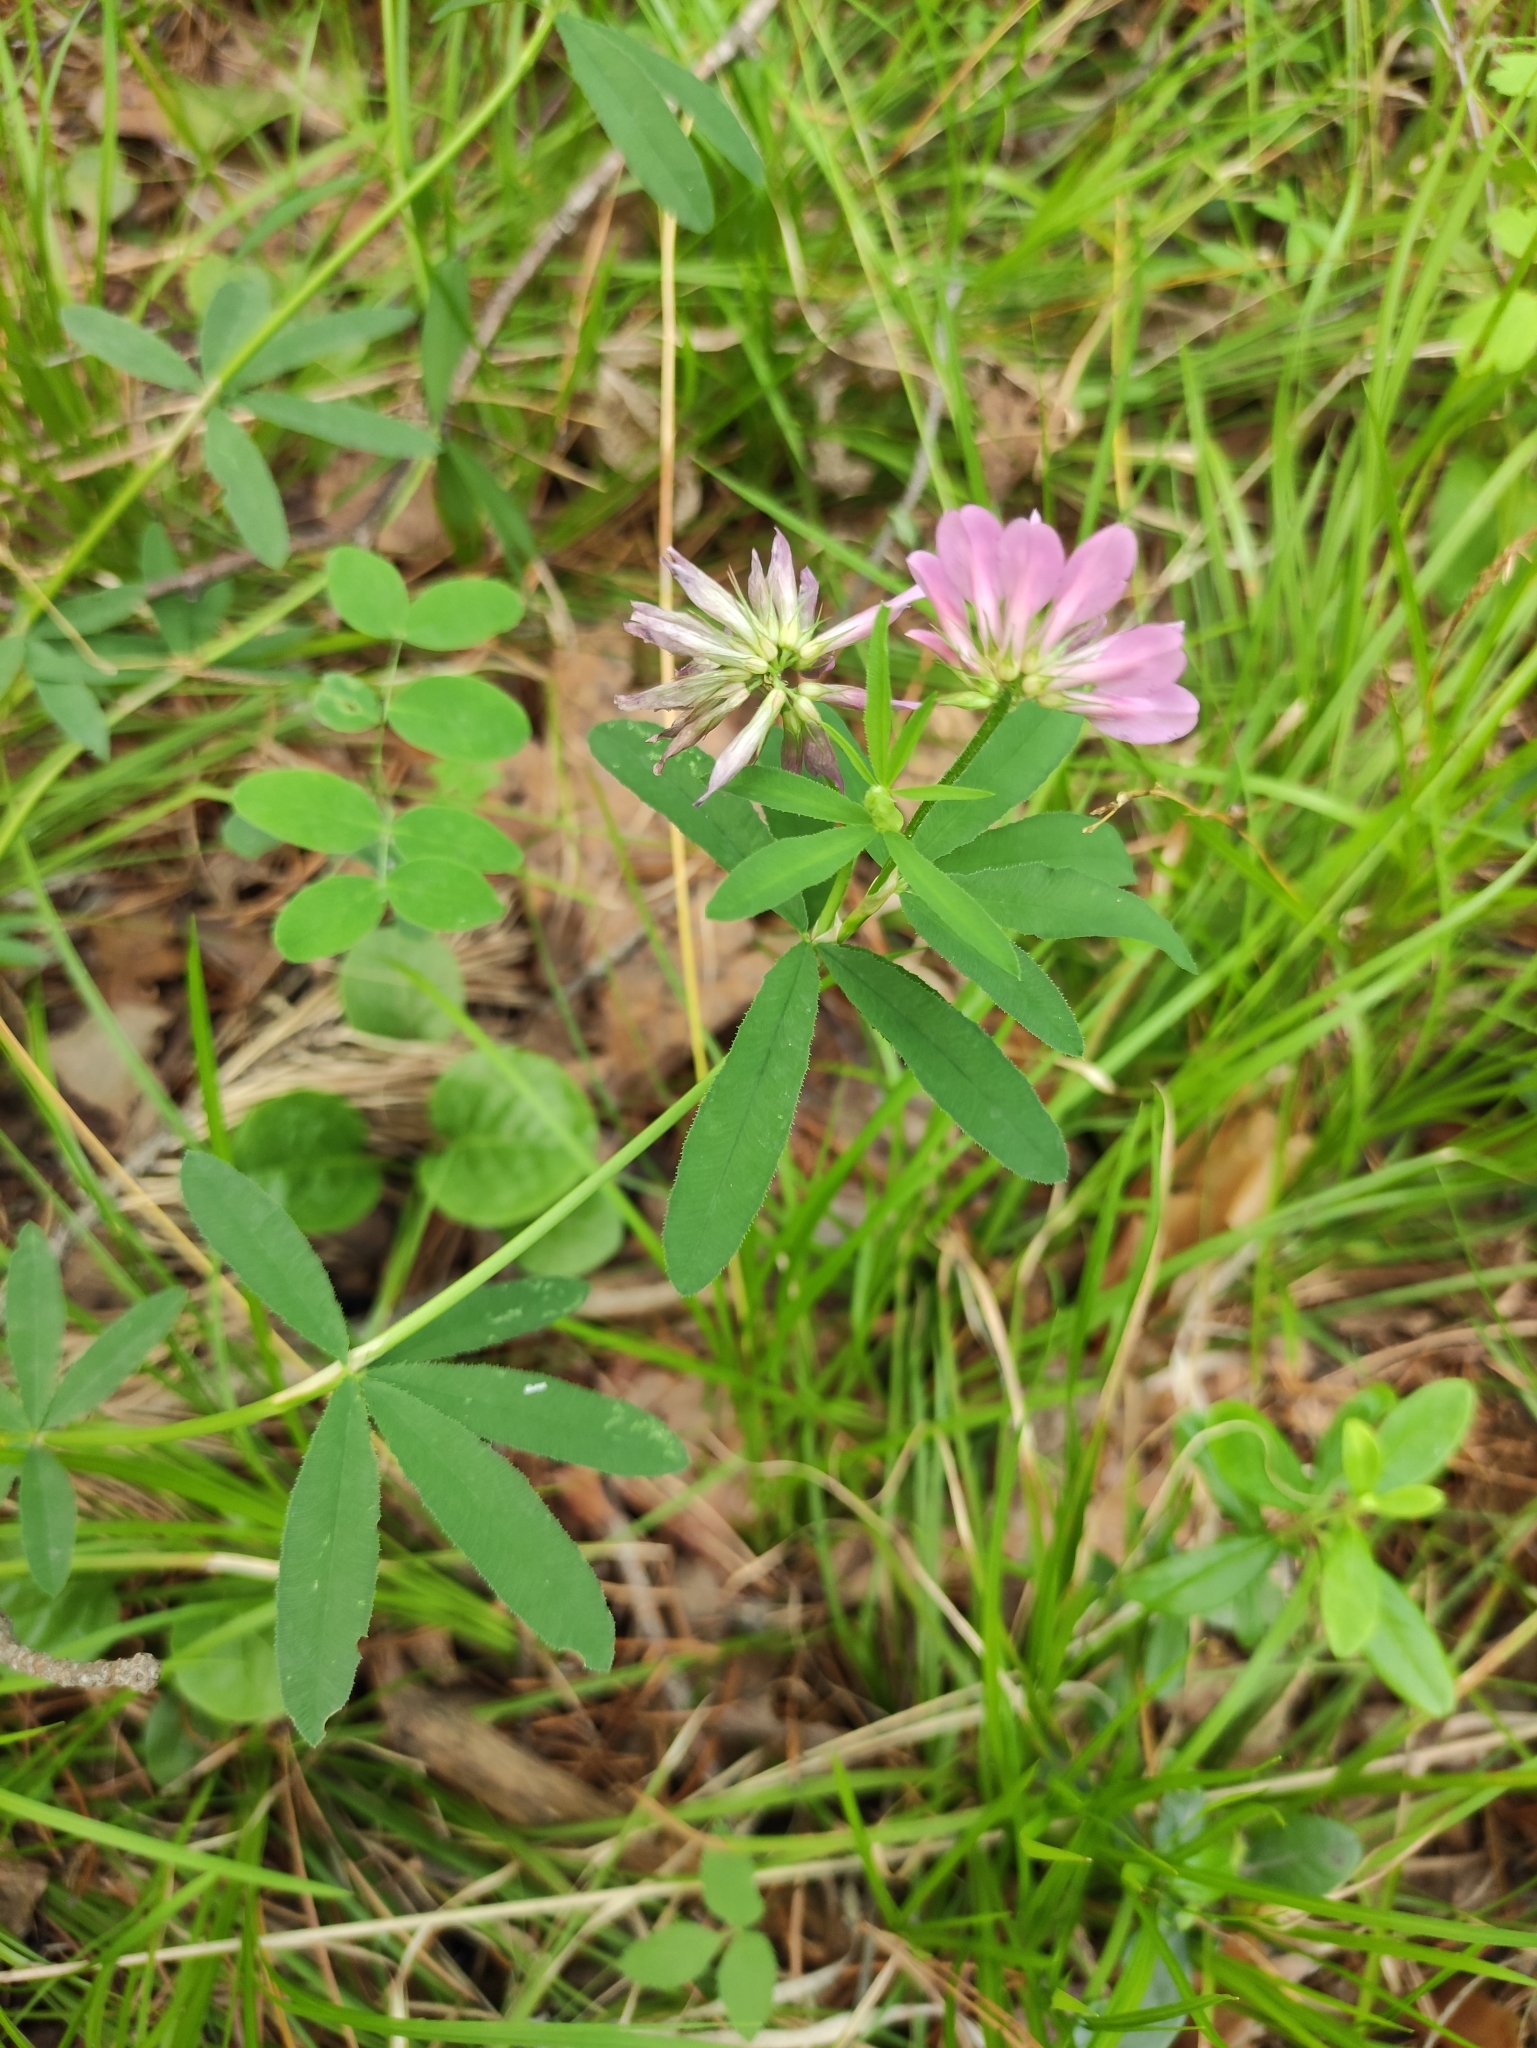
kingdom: Plantae
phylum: Tracheophyta
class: Magnoliopsida
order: Fabales
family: Fabaceae
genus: Trifolium
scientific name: Trifolium lupinaster
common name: Lupine clover
